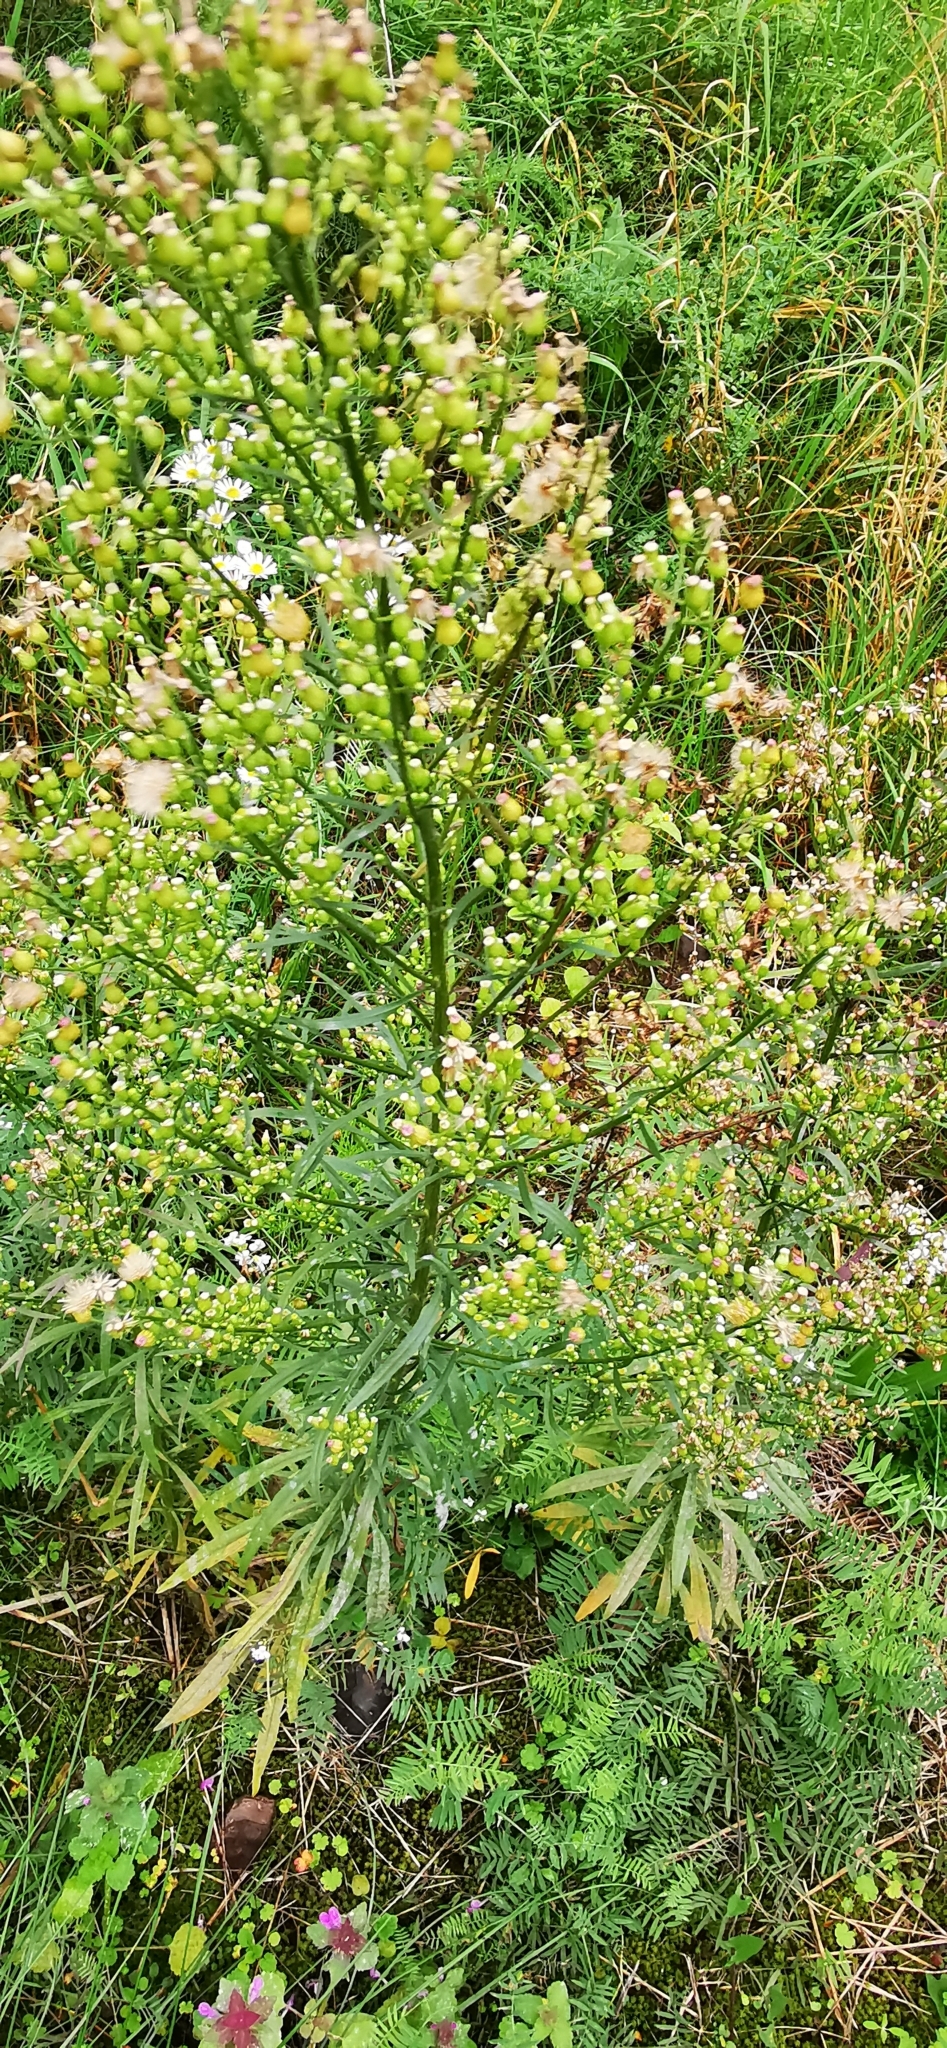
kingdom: Plantae
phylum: Tracheophyta
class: Magnoliopsida
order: Asterales
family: Asteraceae
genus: Erigeron
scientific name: Erigeron canadensis
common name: Canadian fleabane
